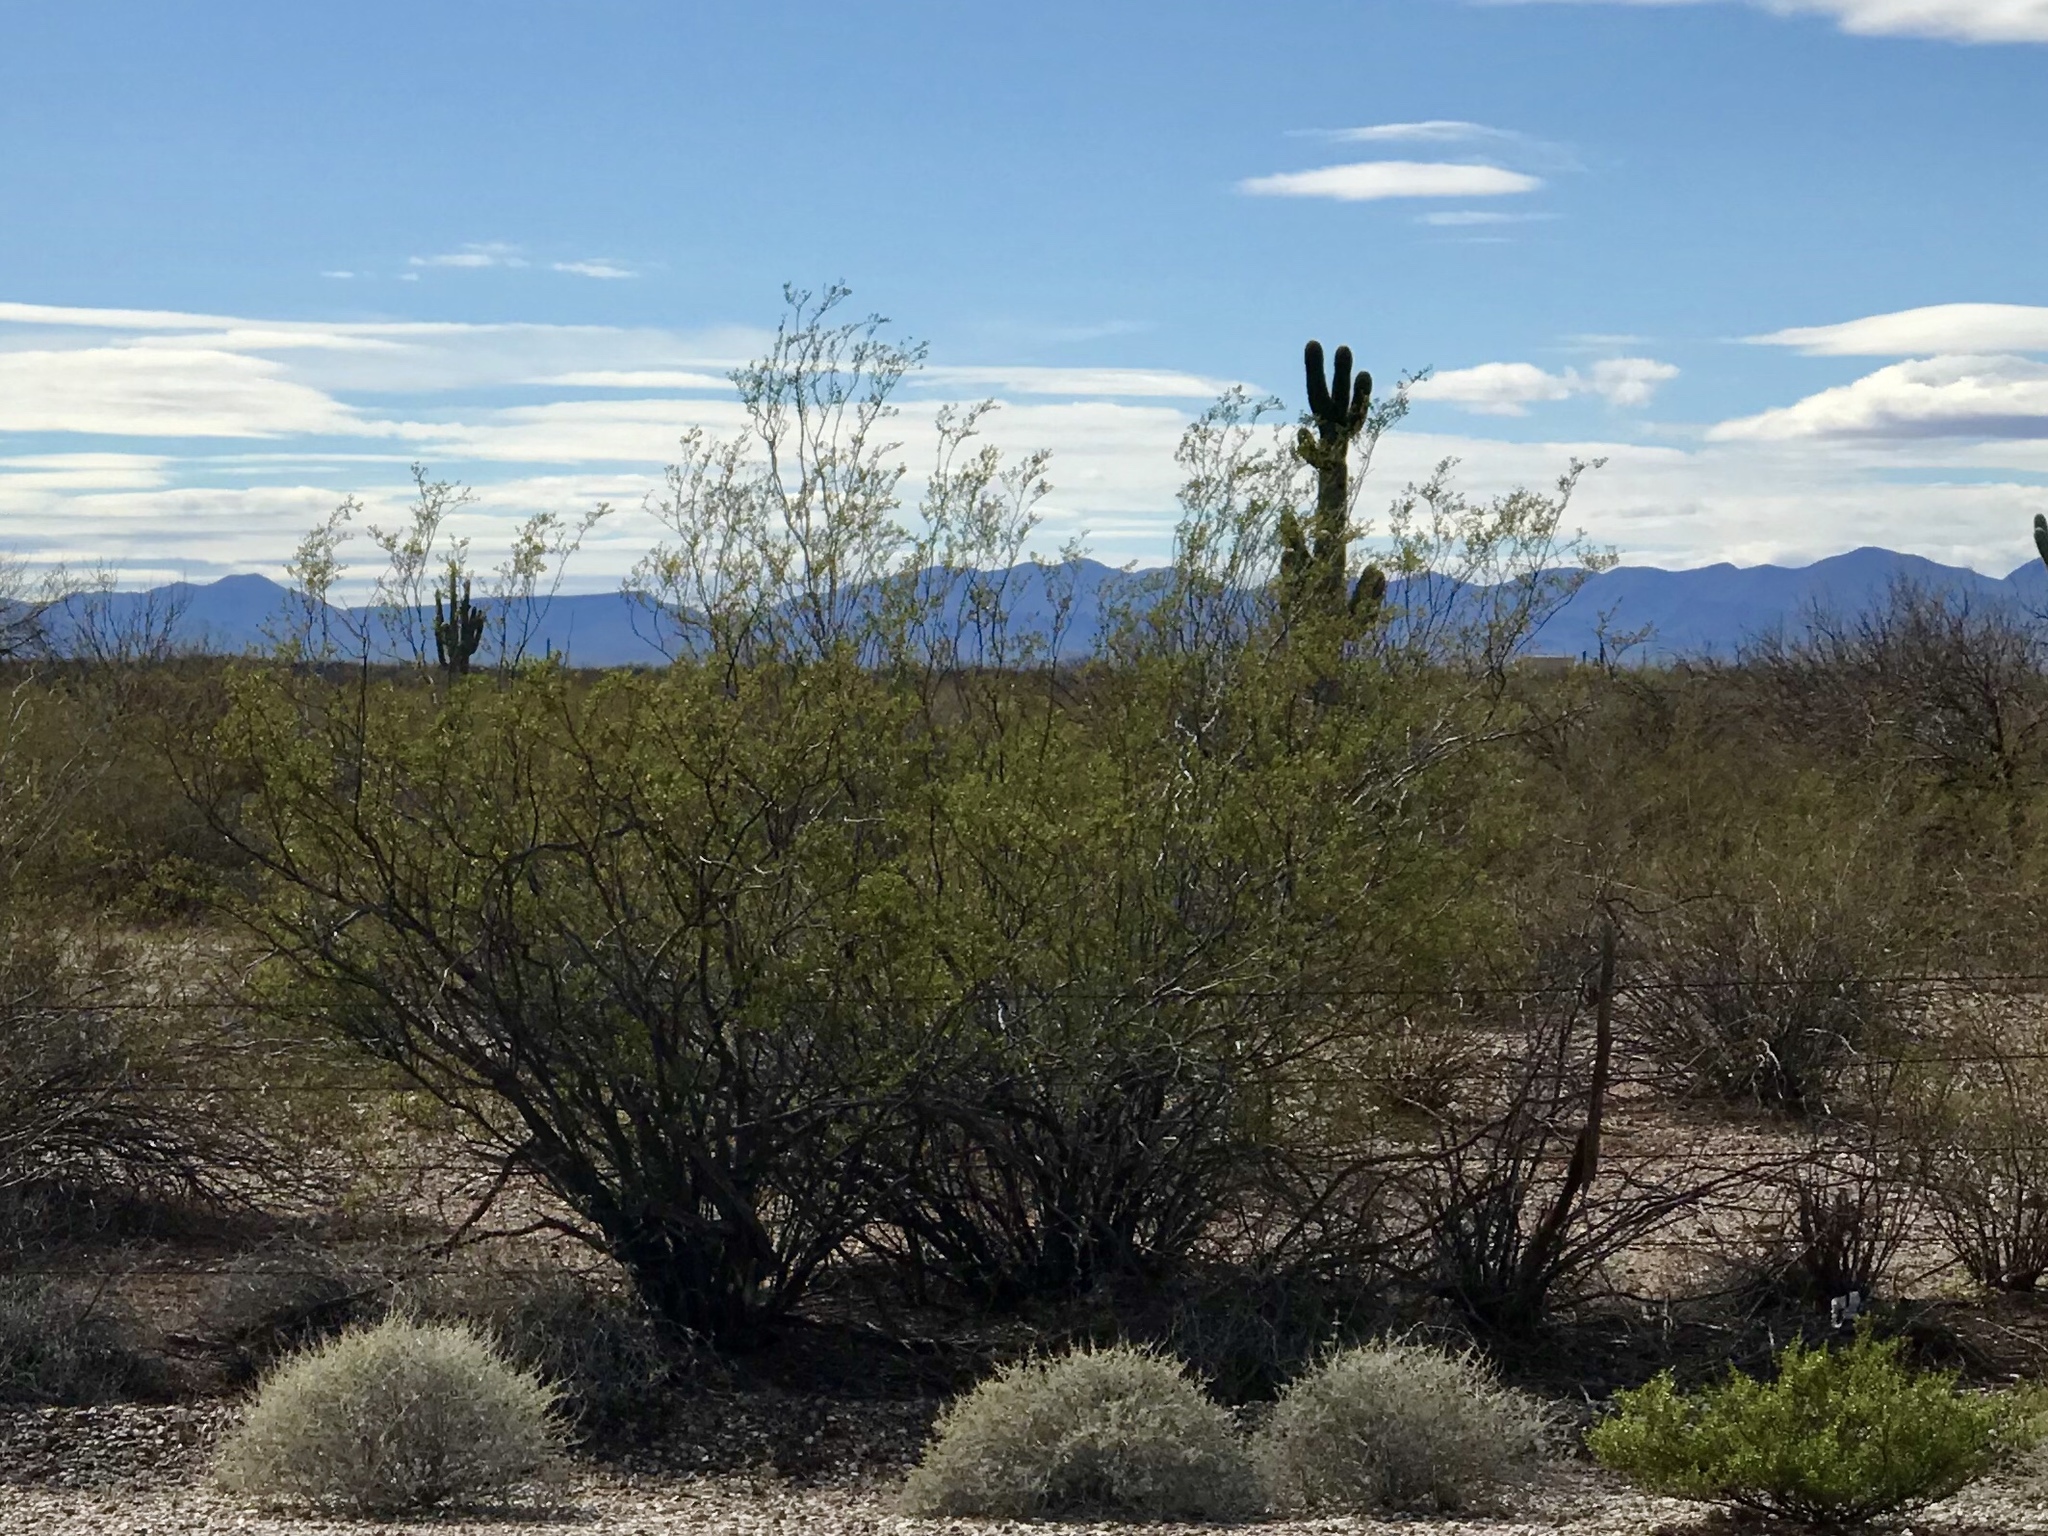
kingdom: Plantae
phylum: Tracheophyta
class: Magnoliopsida
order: Zygophyllales
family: Zygophyllaceae
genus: Larrea
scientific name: Larrea tridentata
